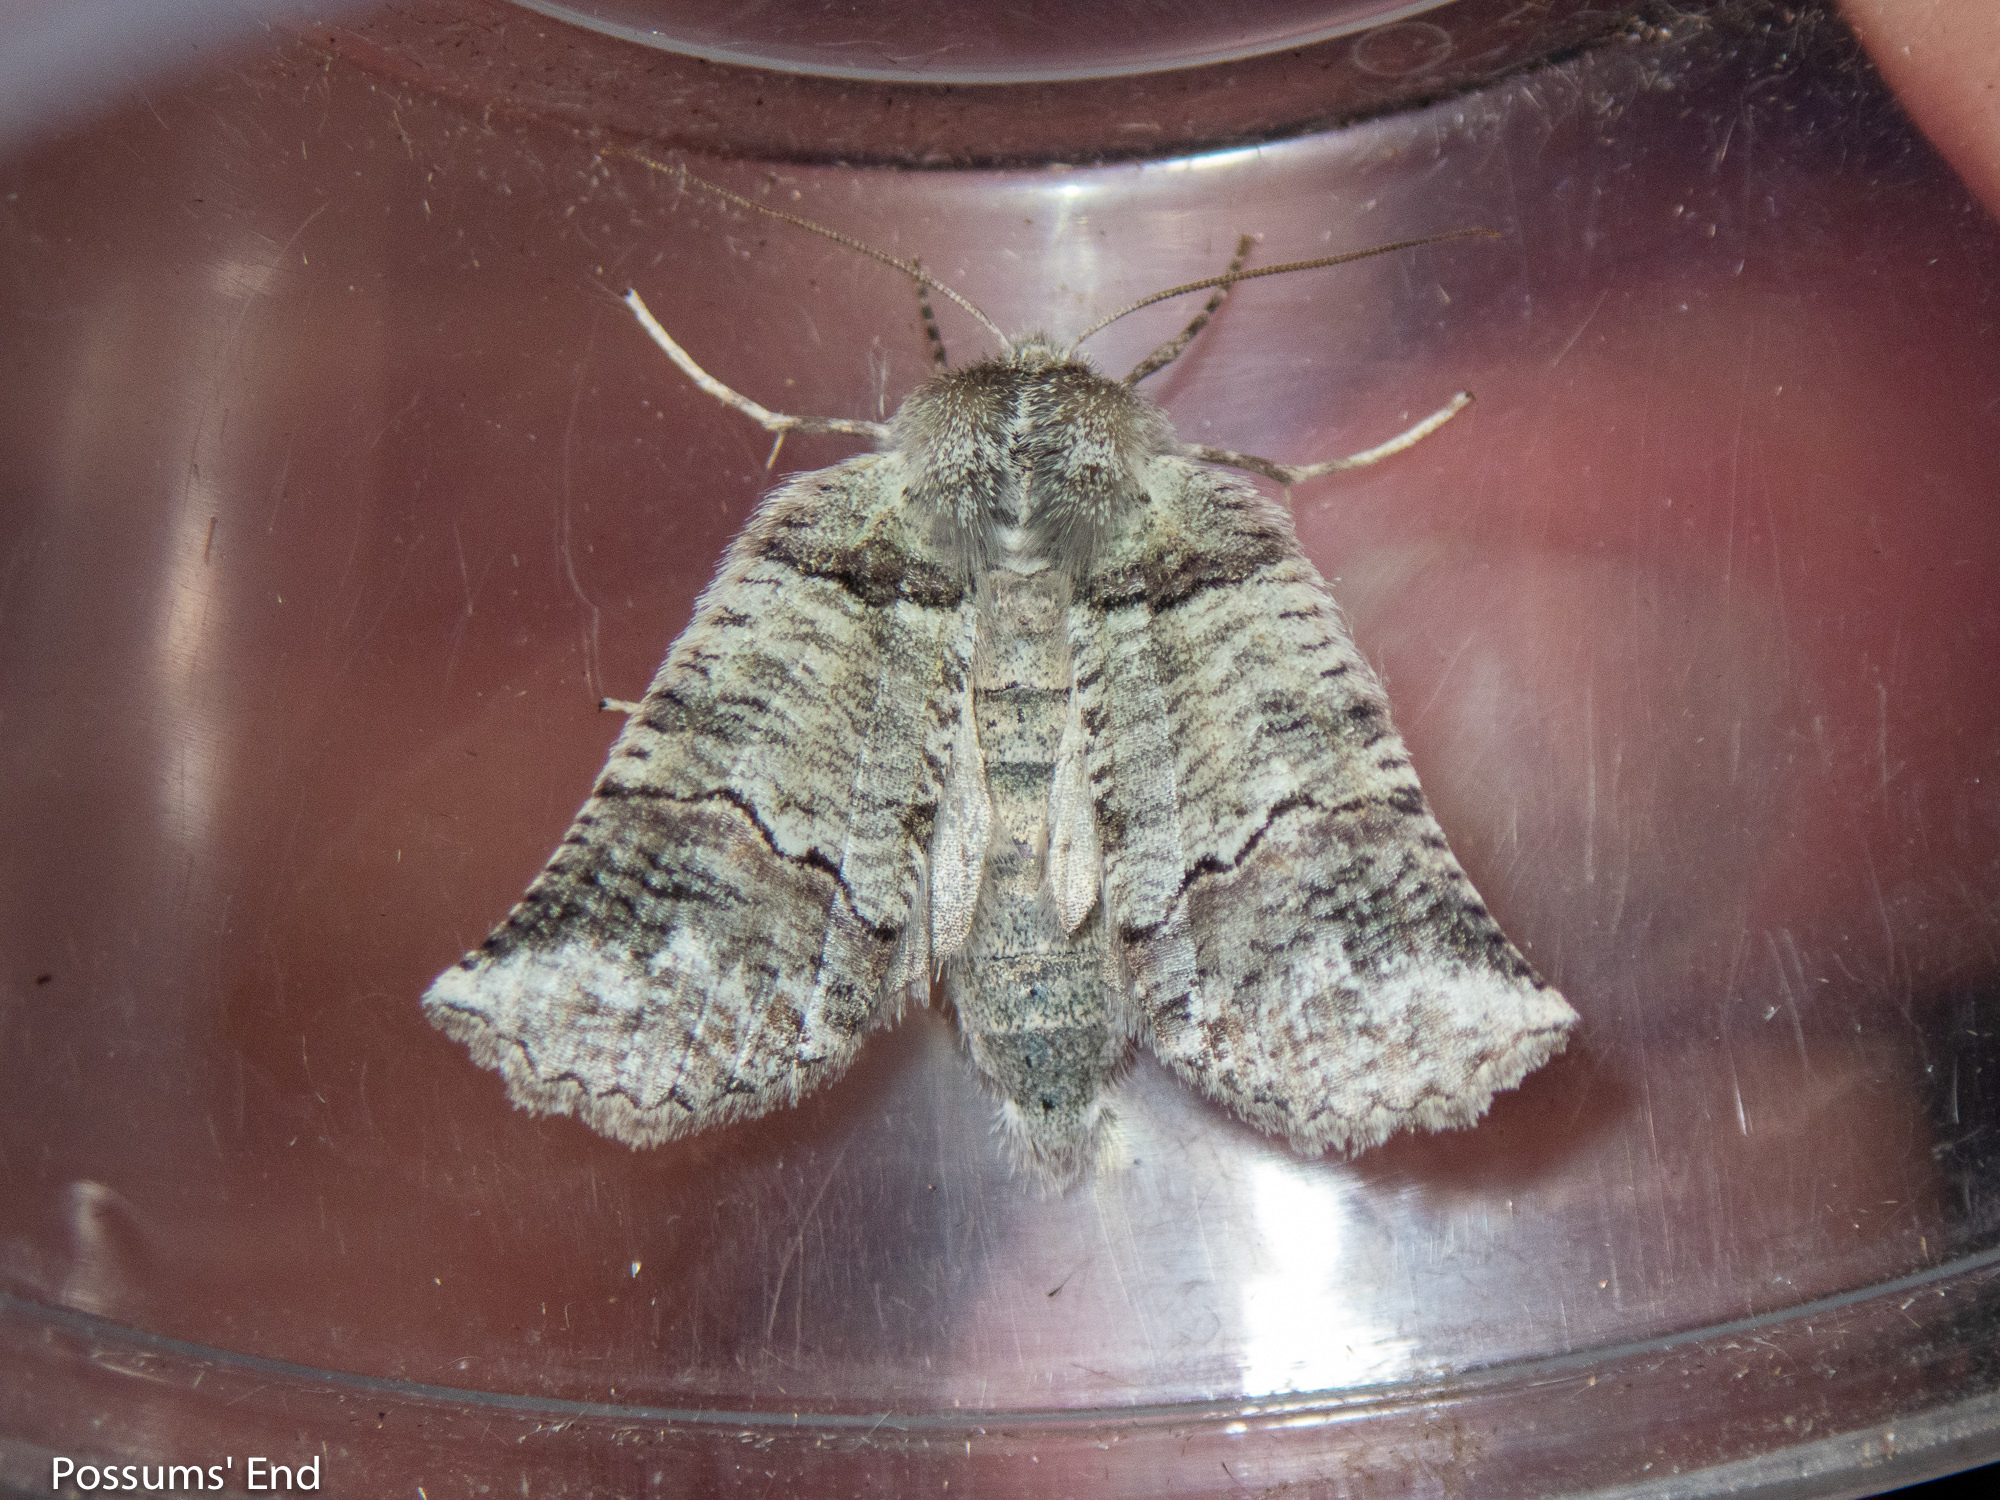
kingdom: Animalia
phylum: Arthropoda
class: Insecta
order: Lepidoptera
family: Geometridae
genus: Declana
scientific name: Declana
